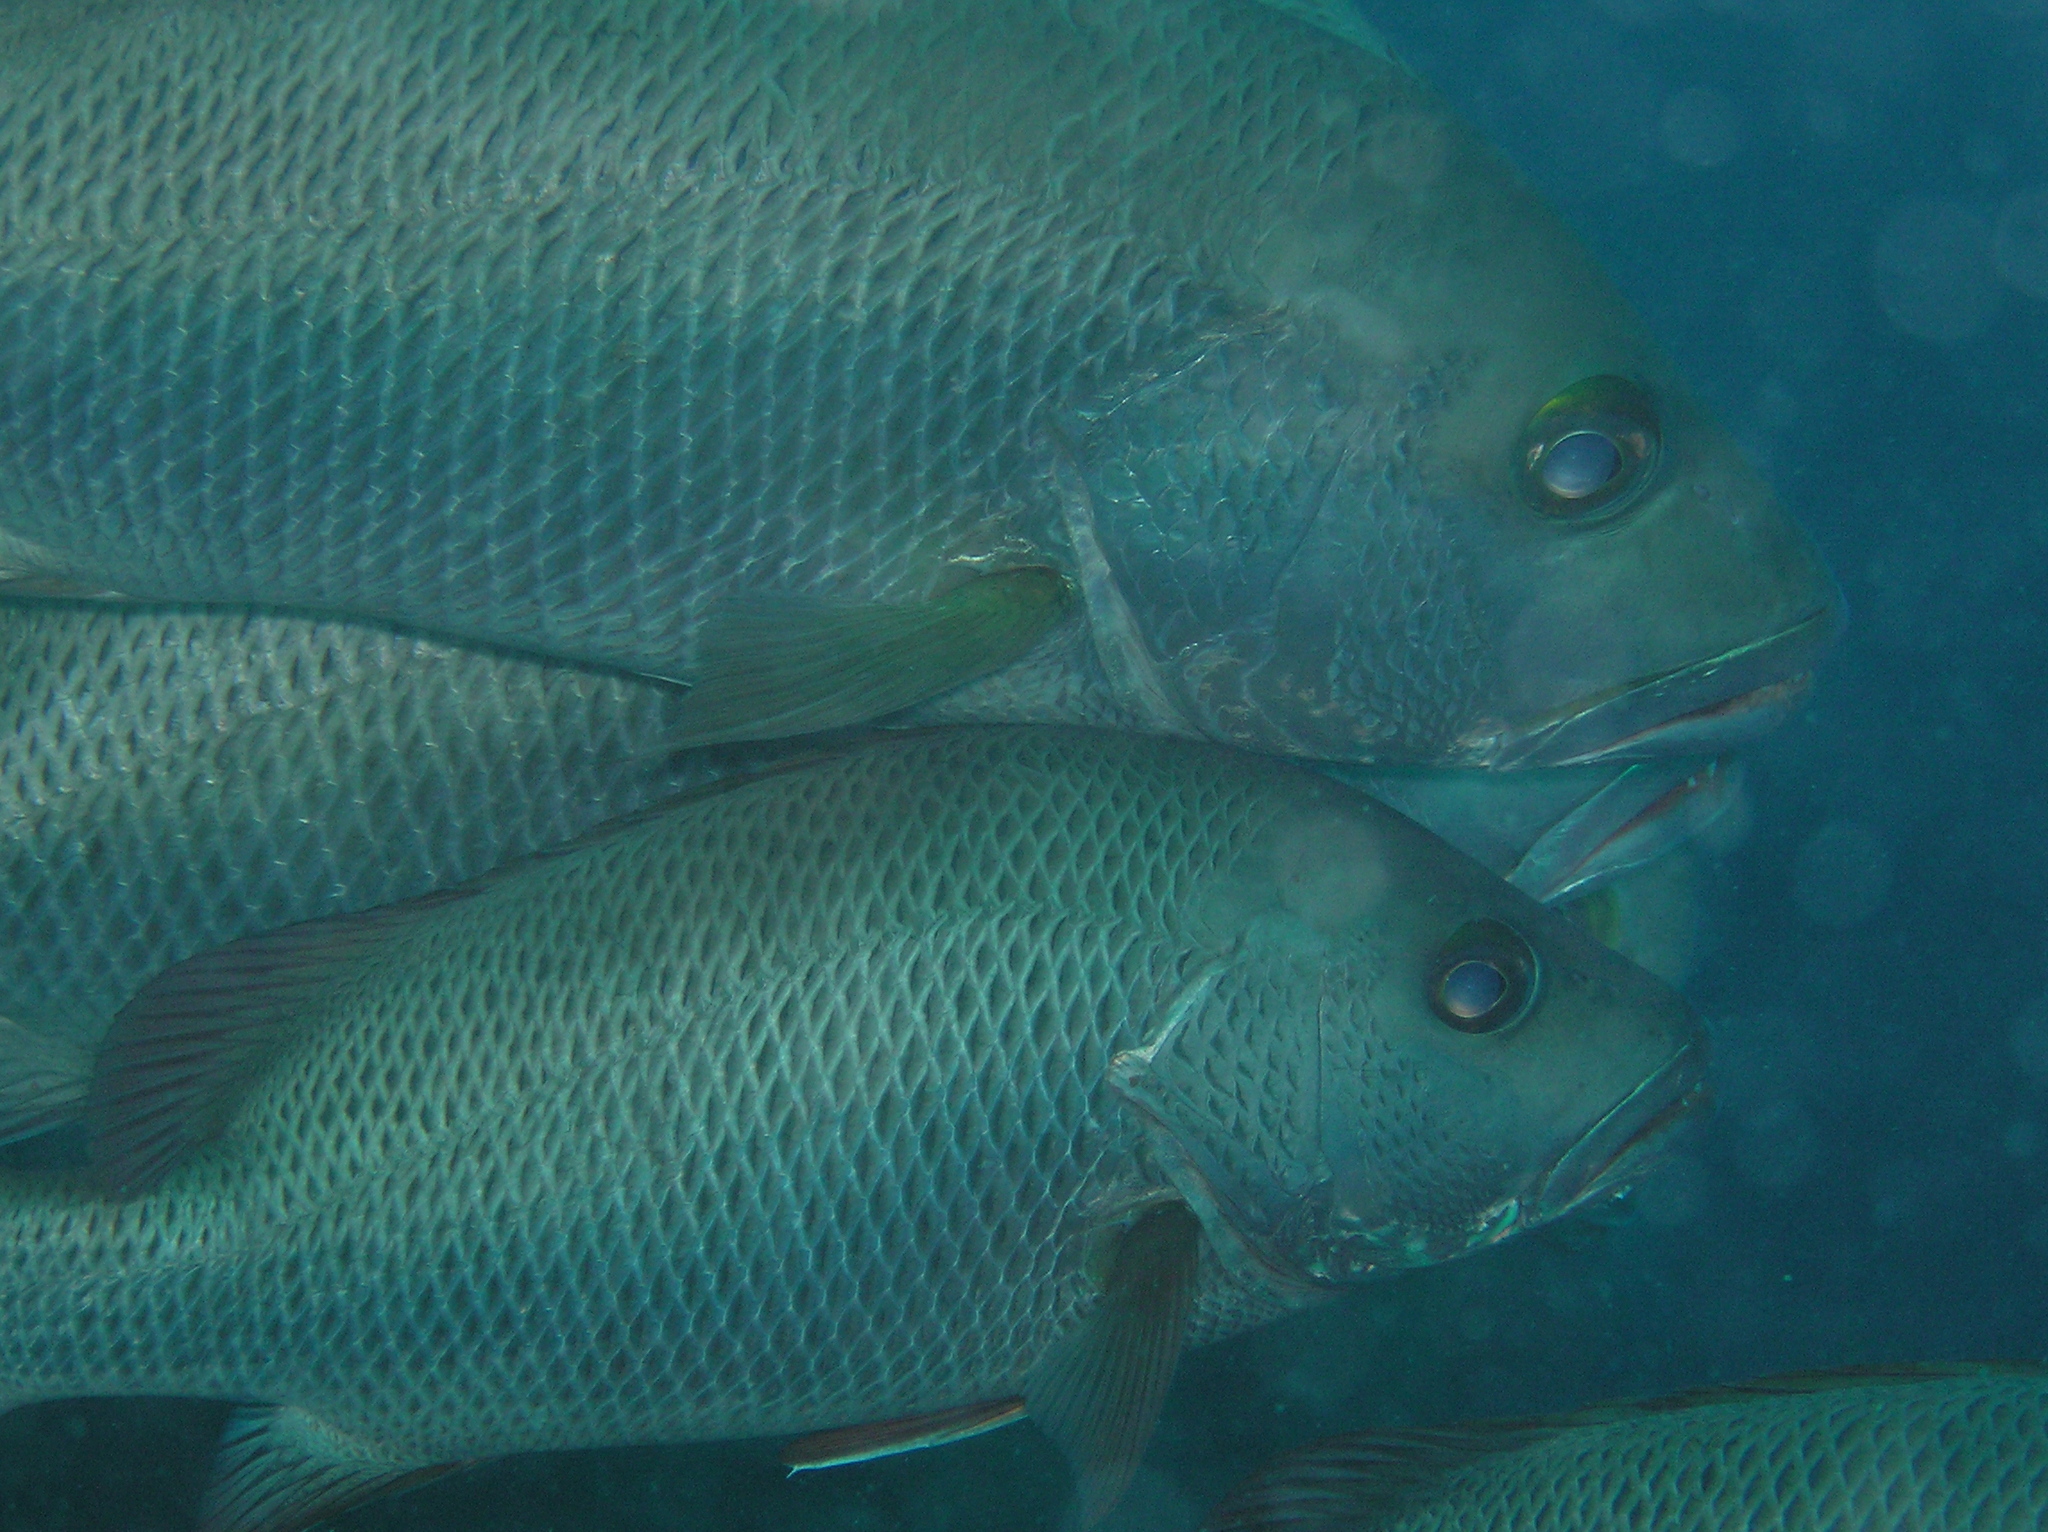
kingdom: Animalia
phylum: Chordata
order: Perciformes
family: Lutjanidae
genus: Lutjanus
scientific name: Lutjanus argentimaculatus
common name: Mangrove red snapper
